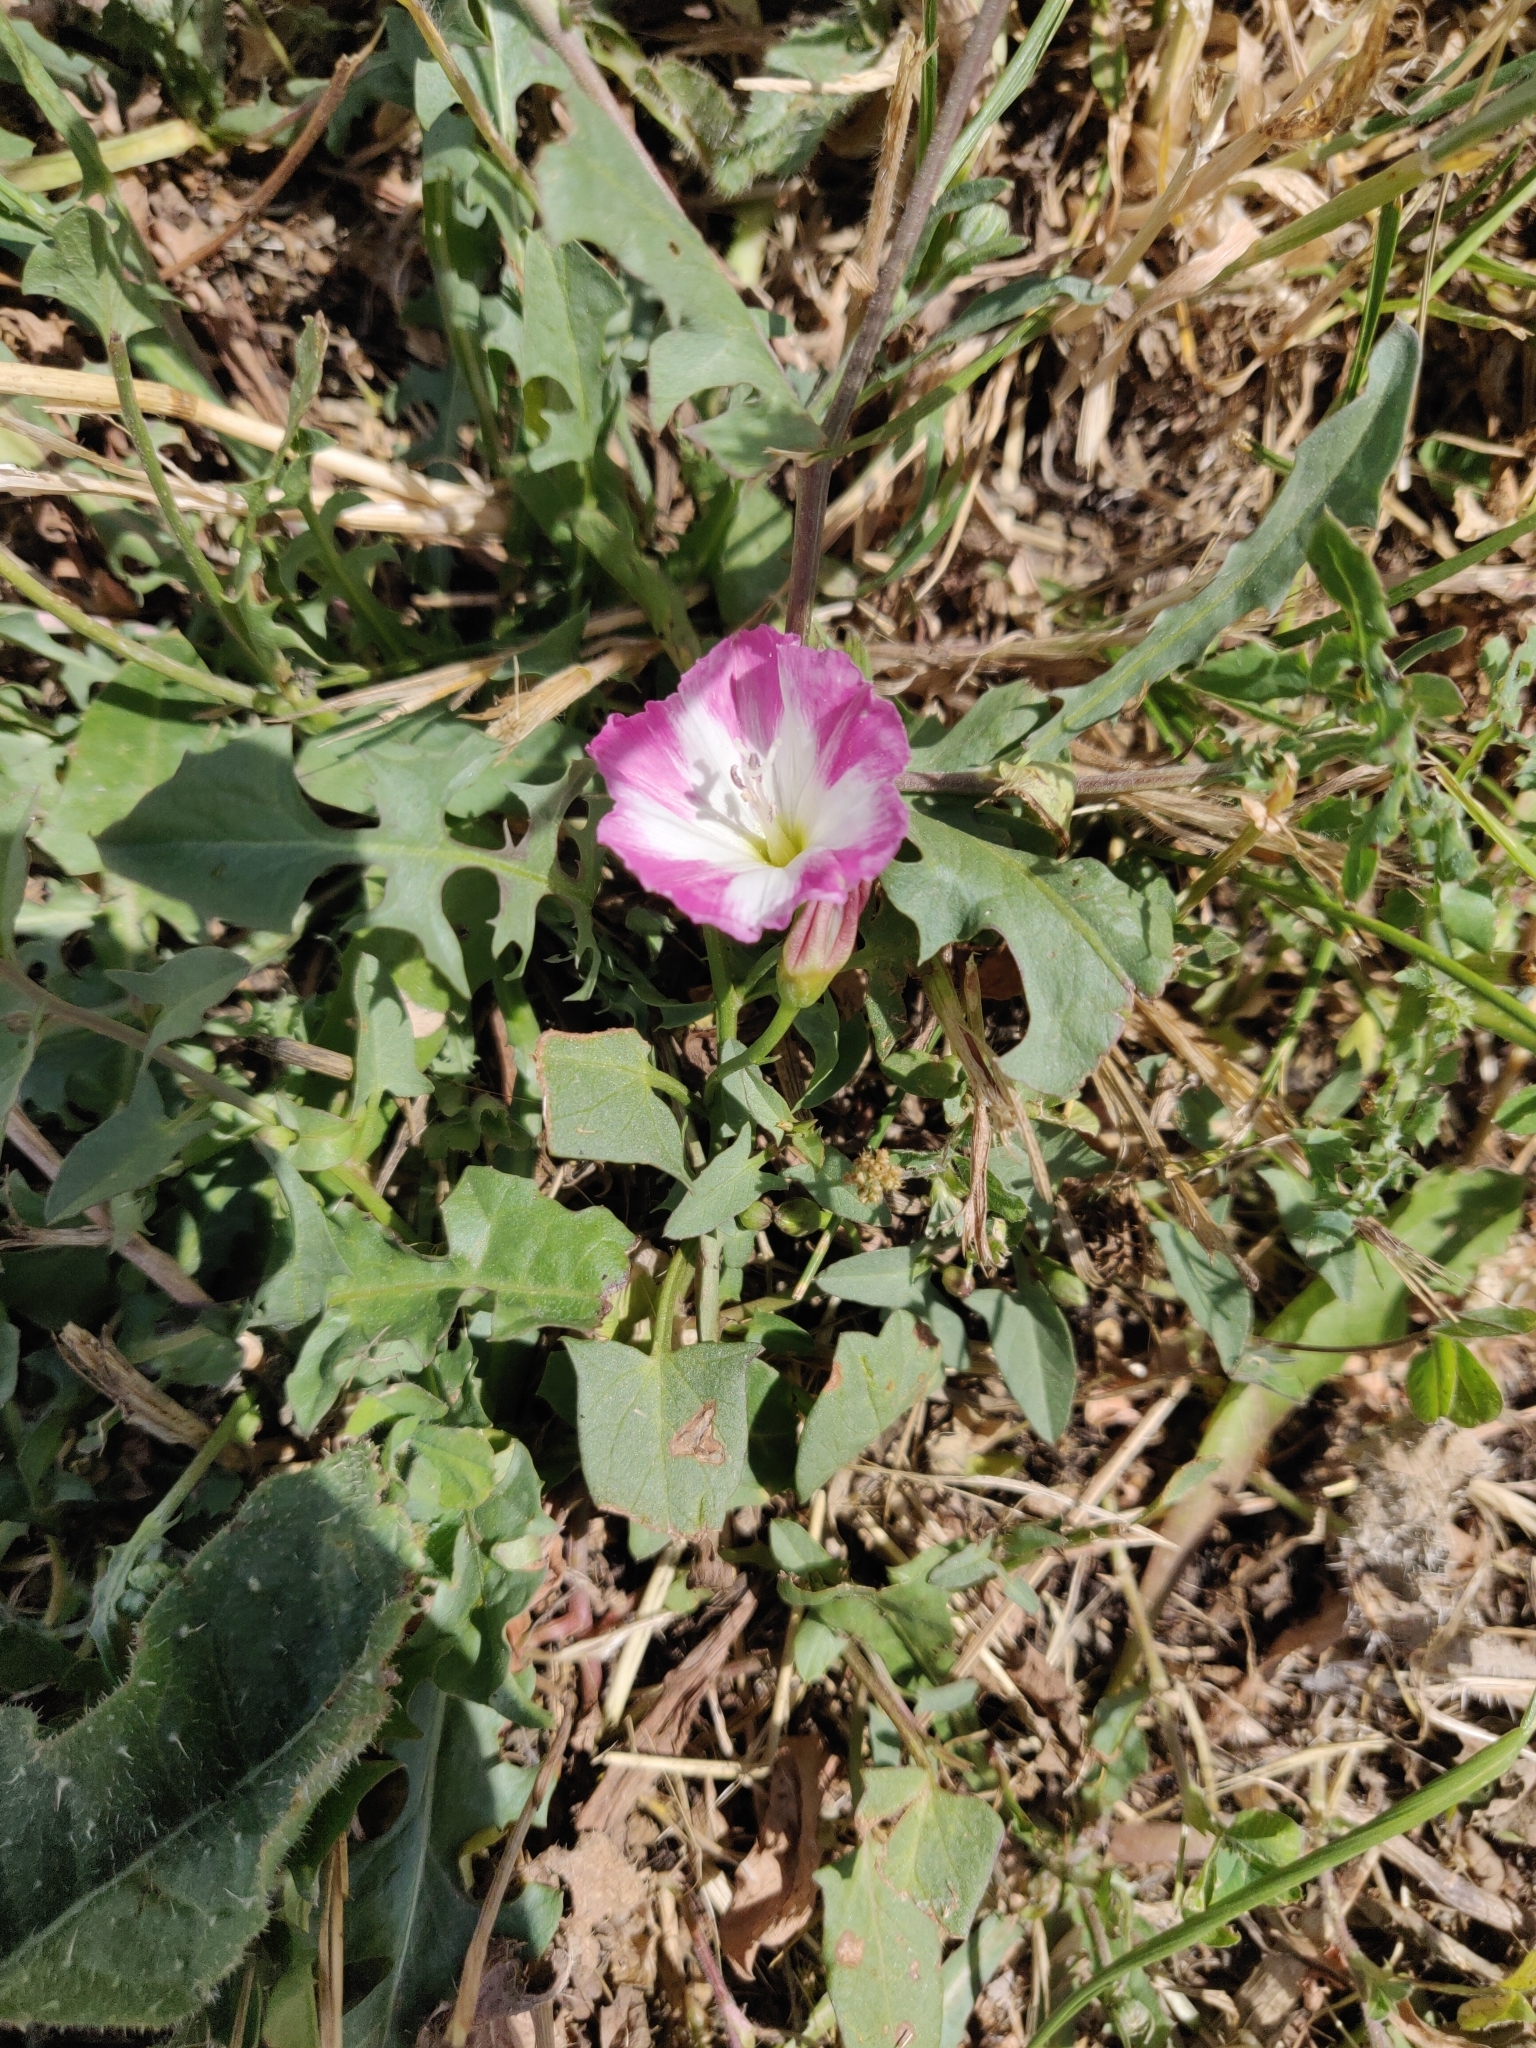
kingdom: Plantae
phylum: Tracheophyta
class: Magnoliopsida
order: Solanales
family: Convolvulaceae
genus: Convolvulus
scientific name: Convolvulus arvensis
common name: Field bindweed
